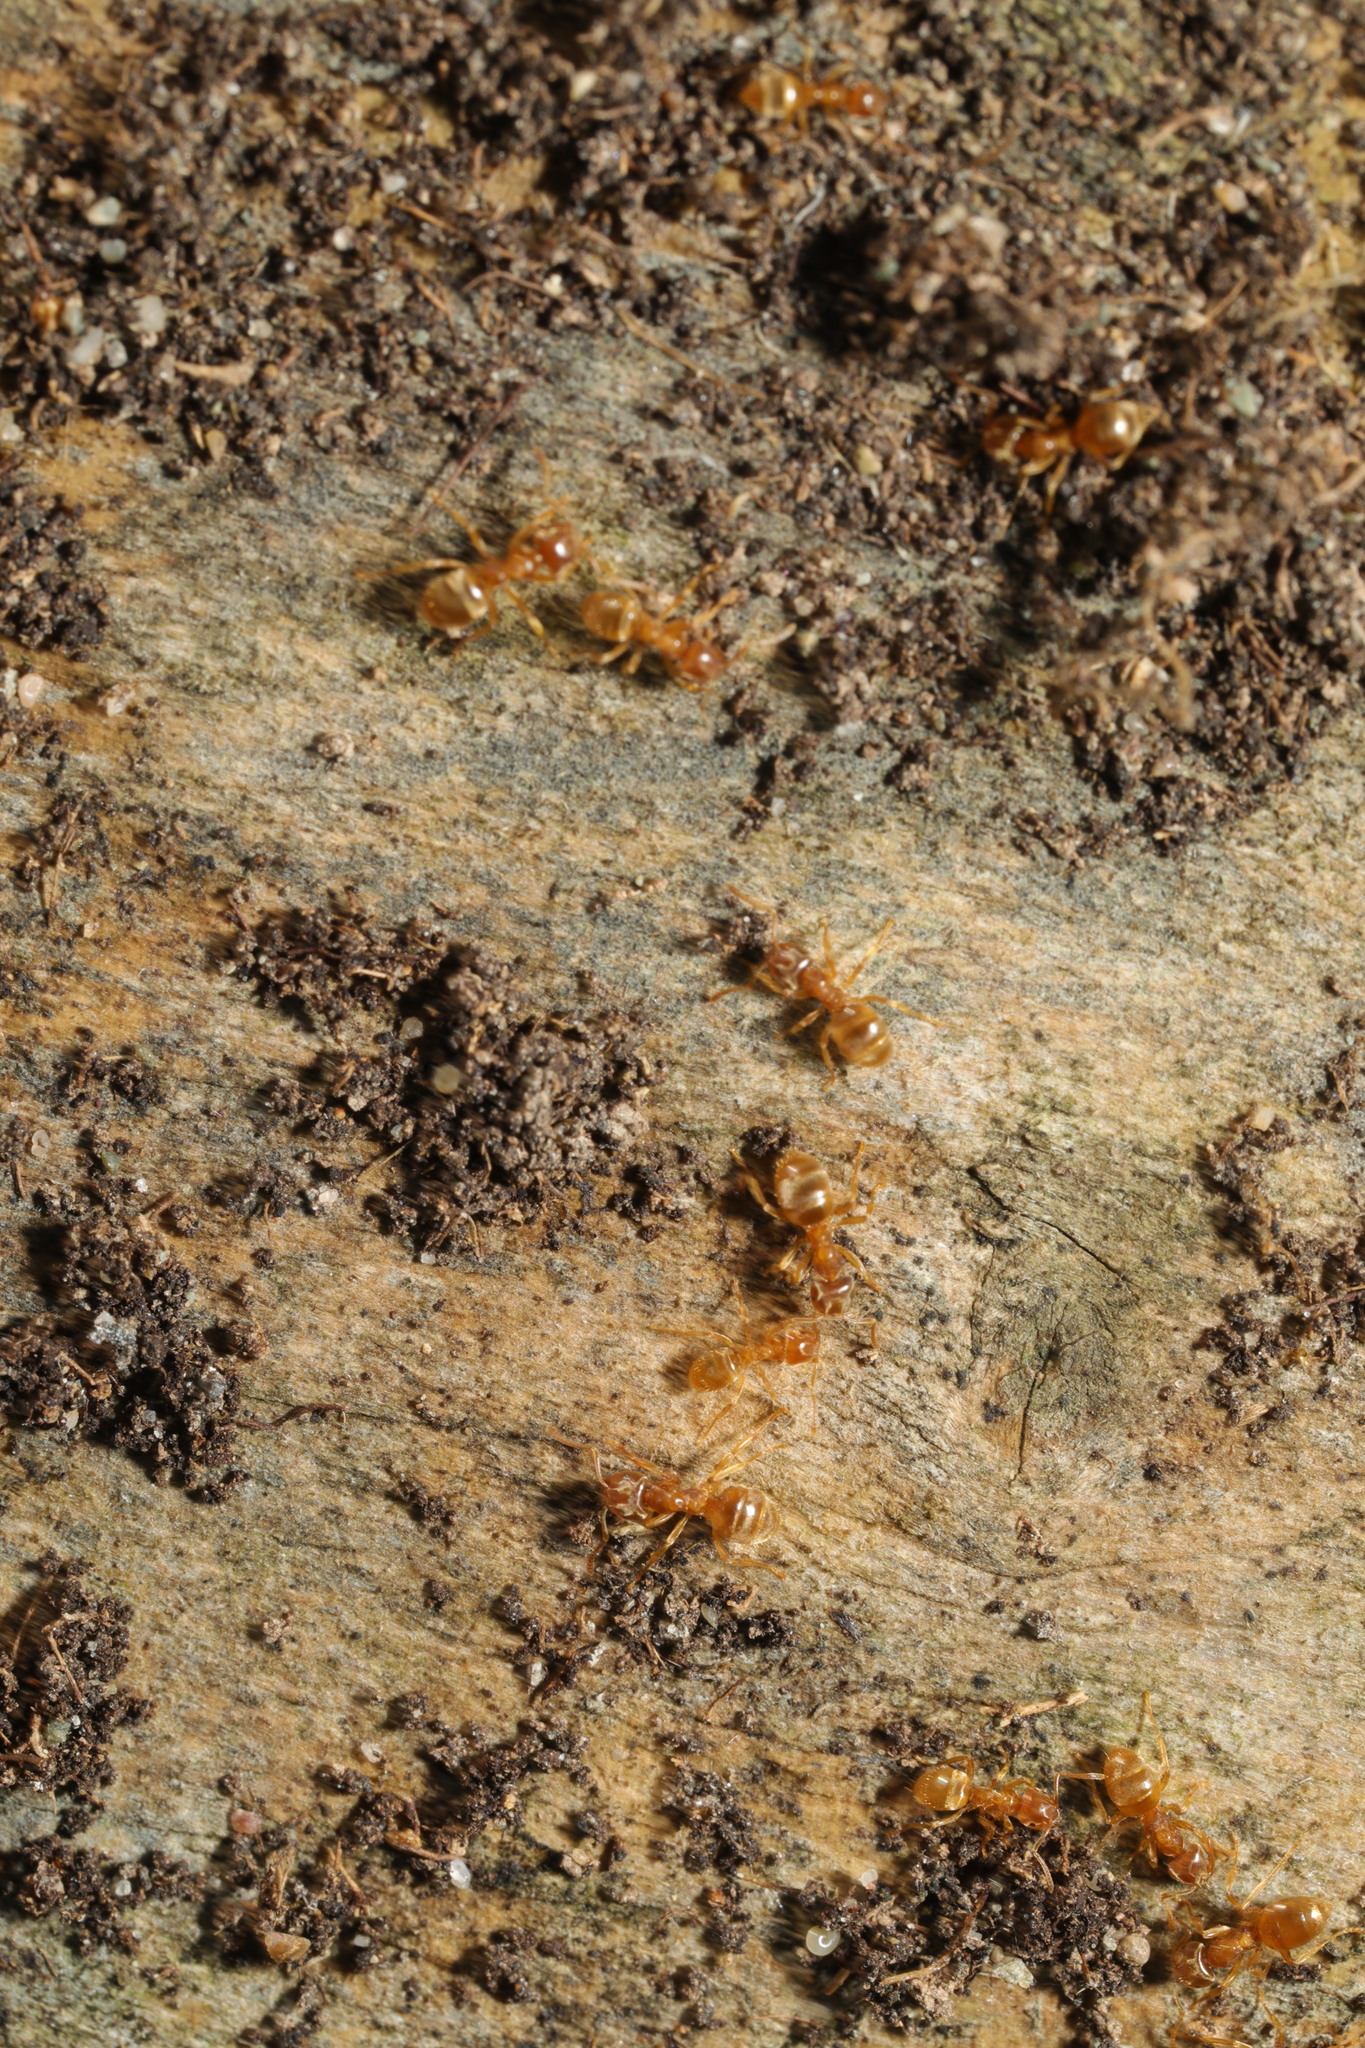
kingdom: Animalia
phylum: Arthropoda
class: Insecta
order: Hymenoptera
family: Formicidae
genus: Lasius
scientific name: Lasius flavus
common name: Blond field ant
